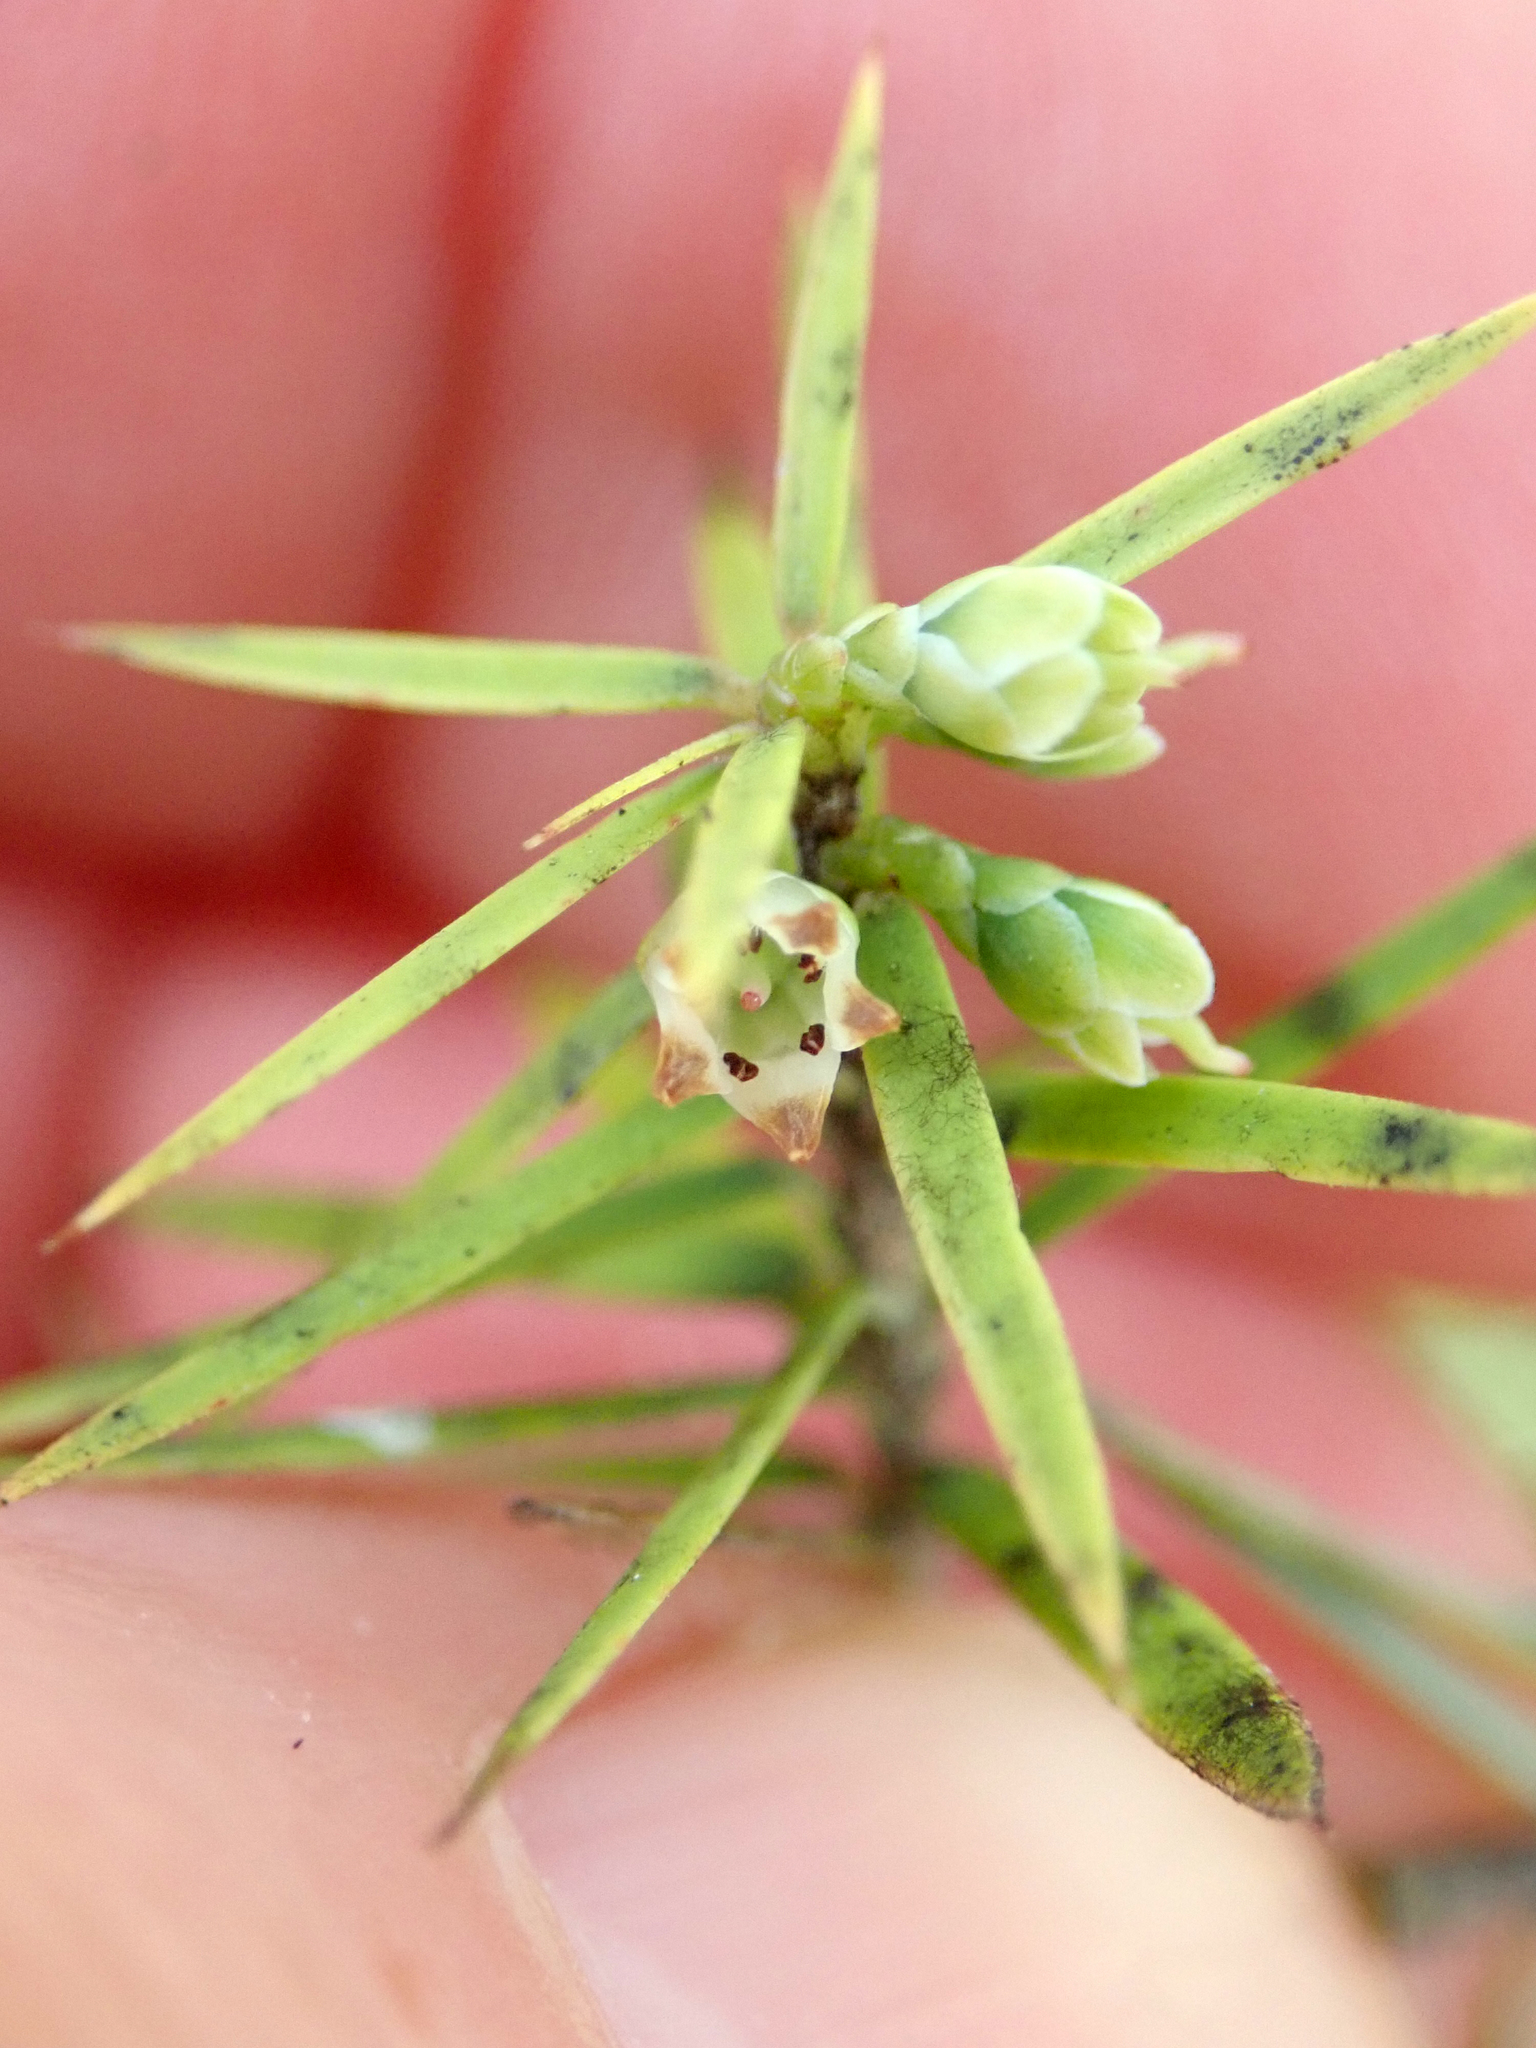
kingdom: Plantae
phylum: Tracheophyta
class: Magnoliopsida
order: Ericales
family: Ericaceae
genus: Leptecophylla
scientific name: Leptecophylla juniperina
